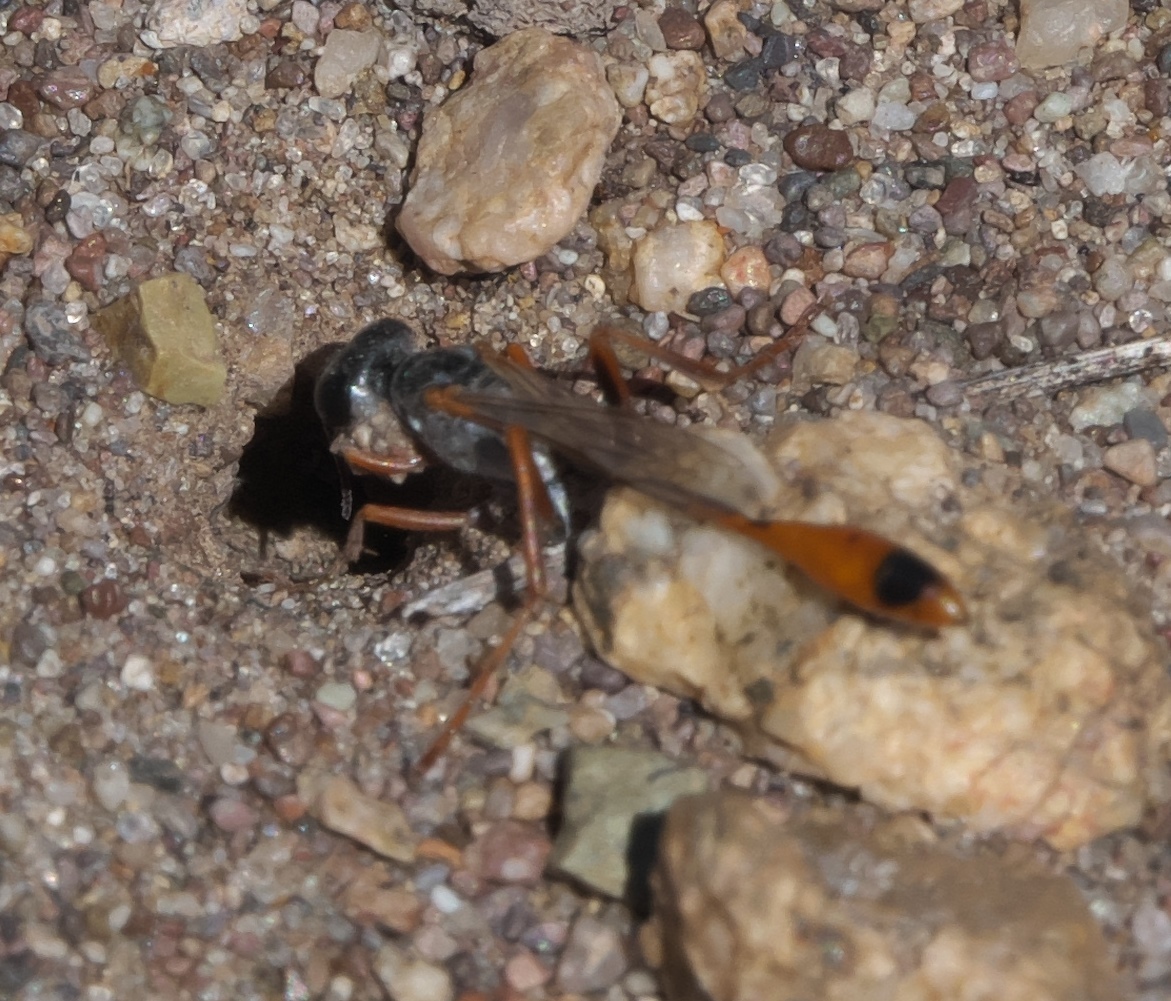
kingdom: Animalia
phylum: Arthropoda
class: Insecta
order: Hymenoptera
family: Sphecidae
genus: Ammophila
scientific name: Ammophila aberti
